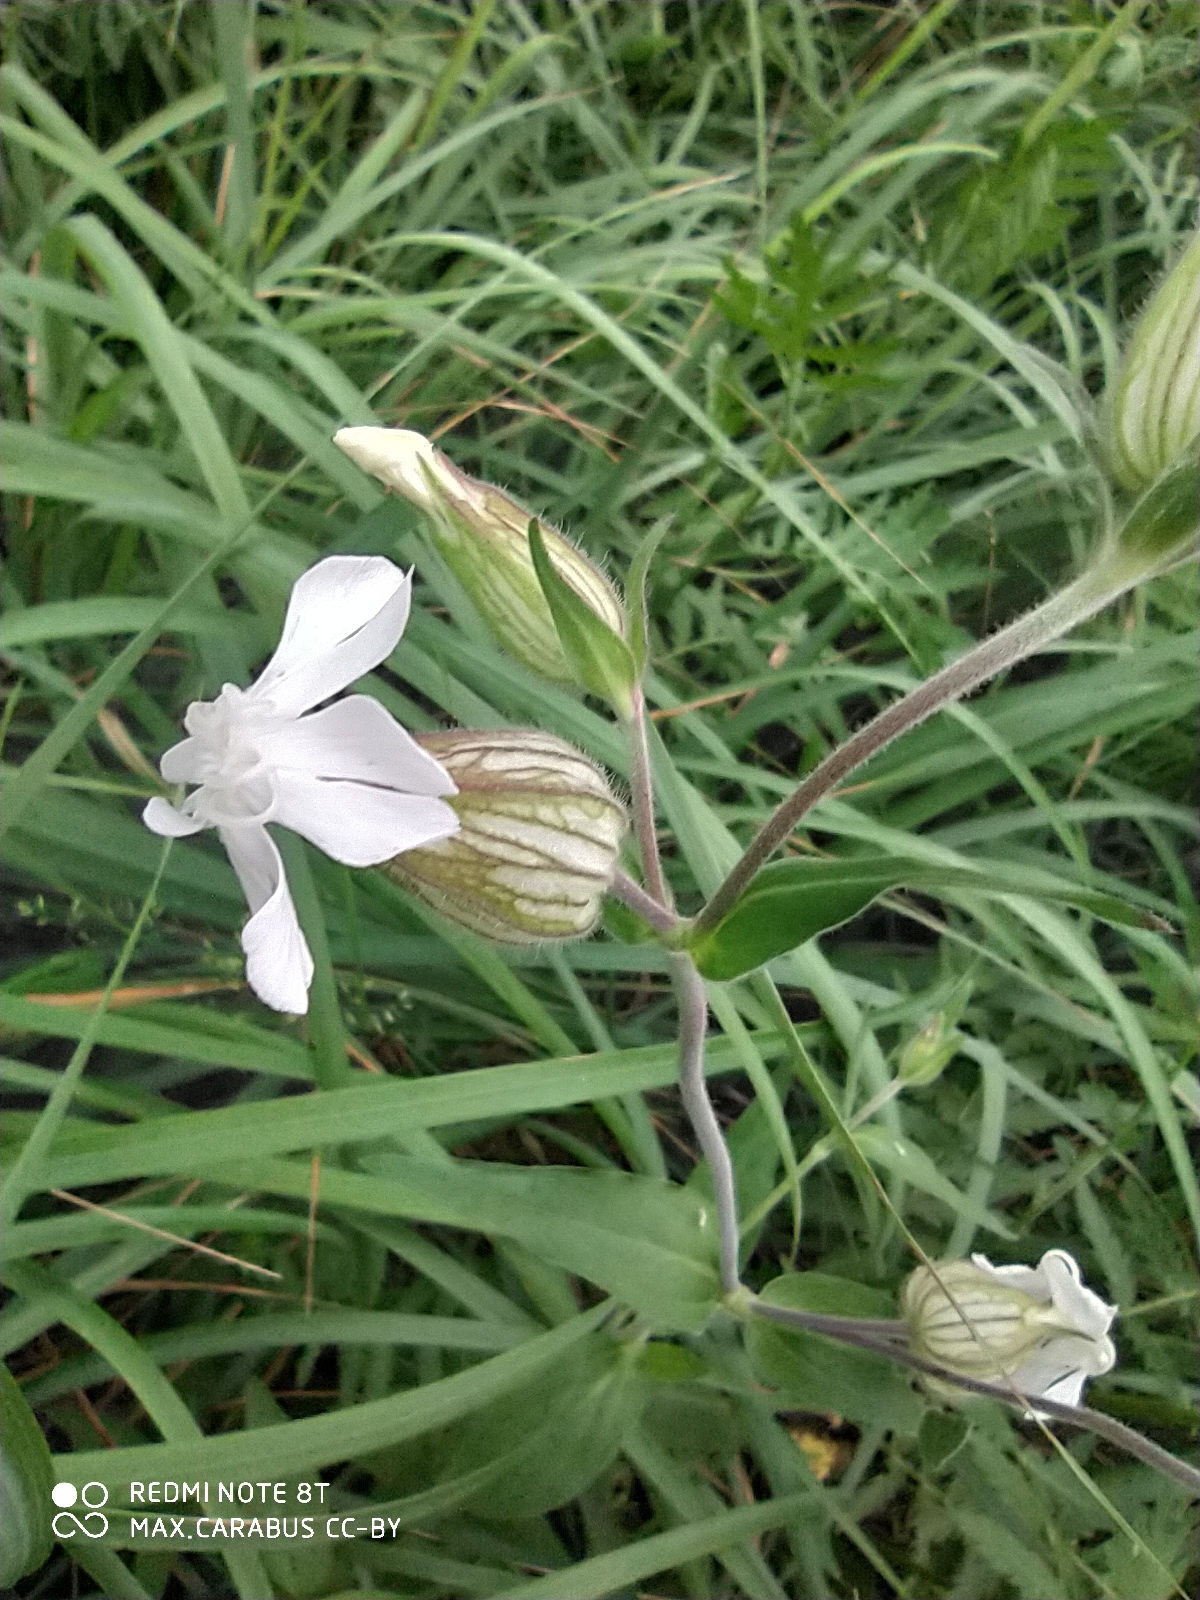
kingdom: Plantae
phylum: Tracheophyta
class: Magnoliopsida
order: Caryophyllales
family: Caryophyllaceae
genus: Silene
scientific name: Silene latifolia
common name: White campion
